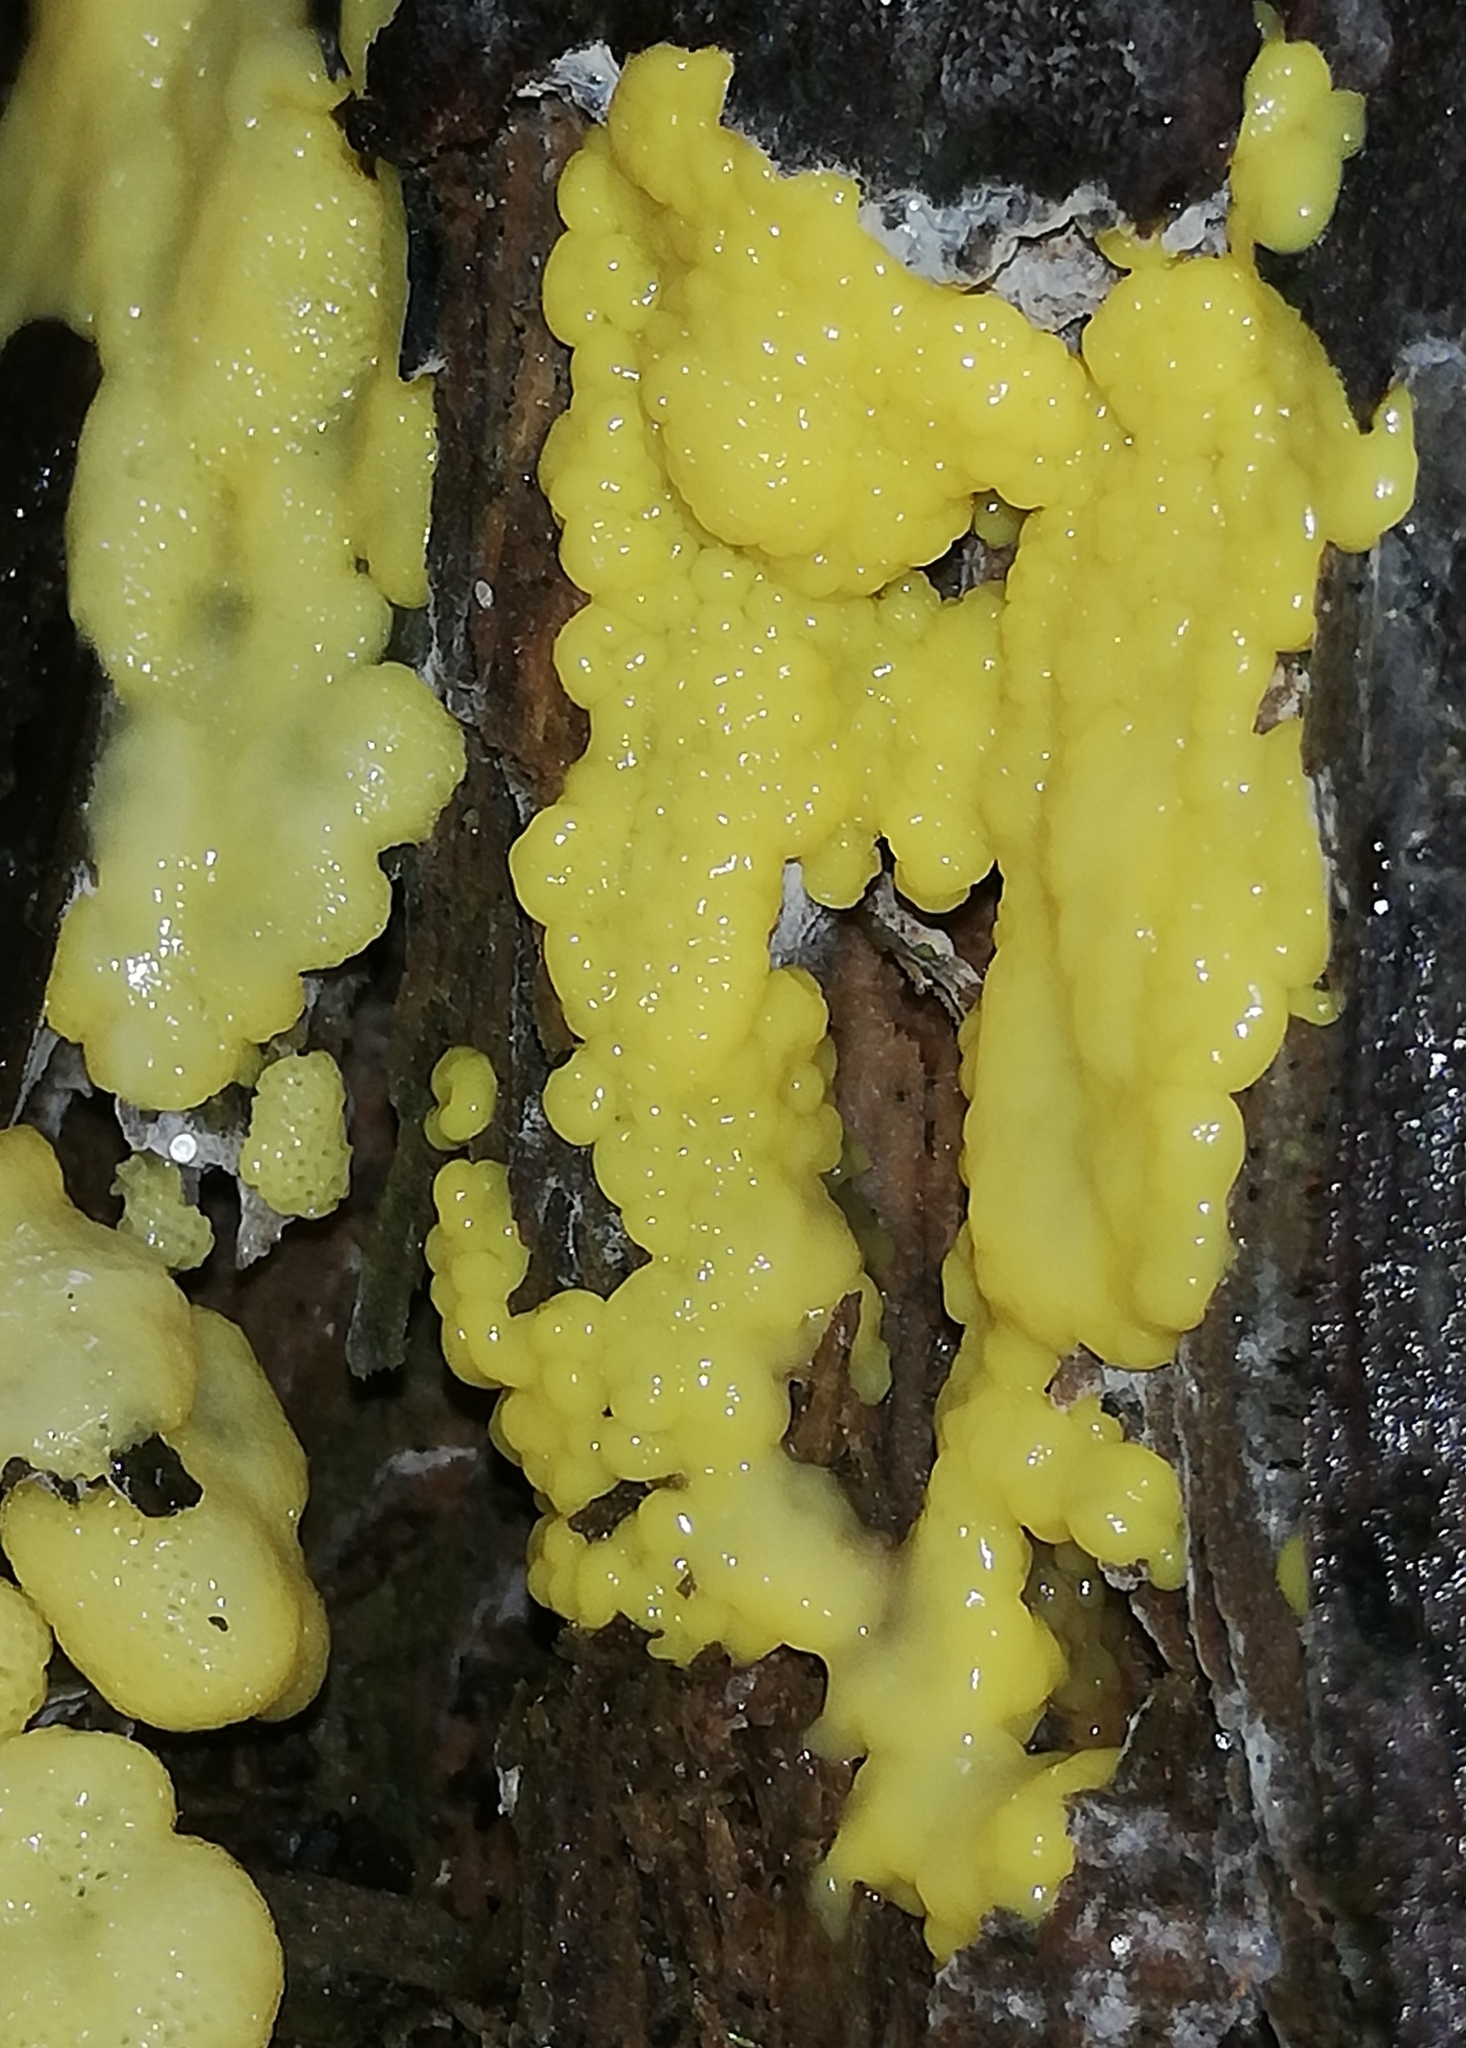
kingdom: Protozoa
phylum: Mycetozoa
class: Protosteliomycetes
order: Ceratiomyxales
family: Ceratiomyxaceae
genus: Ceratiomyxa
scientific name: Ceratiomyxa fruticulosa
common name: Honeycomb coral slime mold
